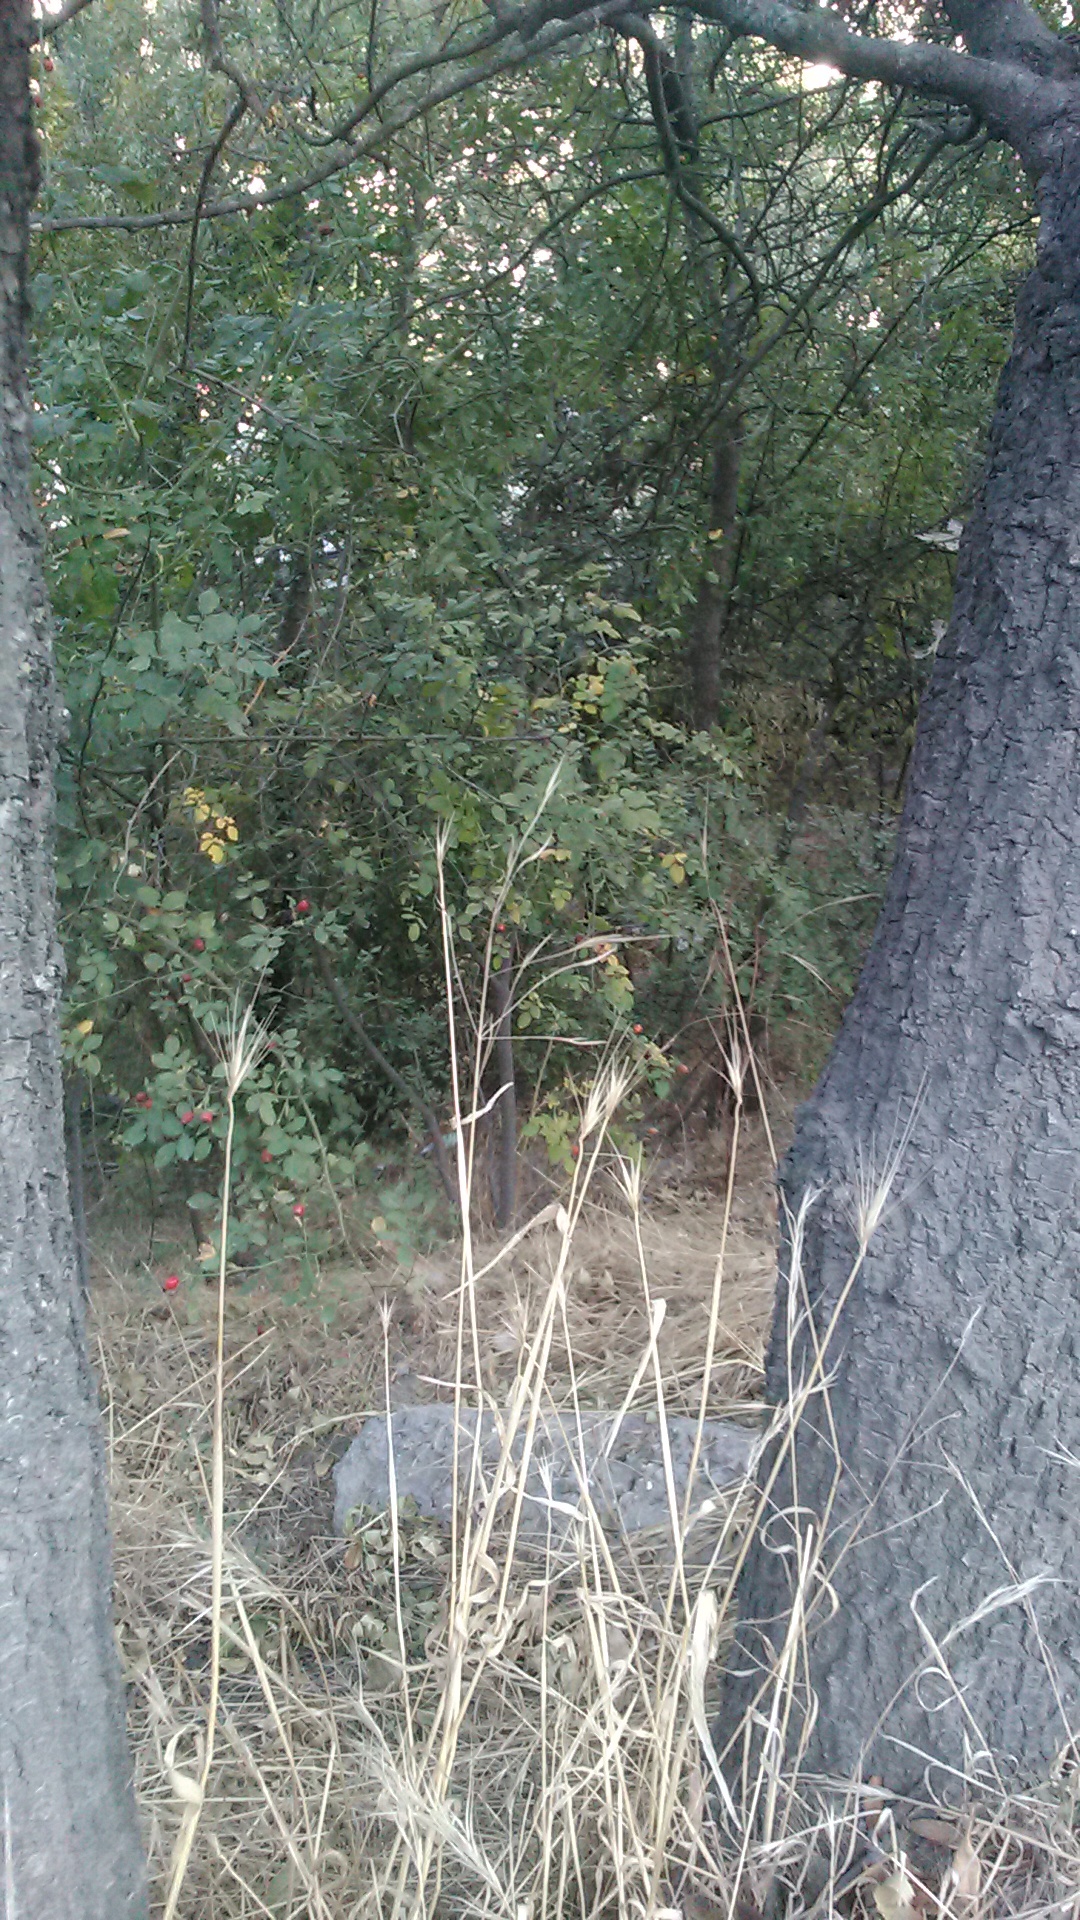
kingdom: Plantae
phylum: Tracheophyta
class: Liliopsida
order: Poales
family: Poaceae
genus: Hordeum
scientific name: Hordeum bulbosum
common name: Bulbous barley
